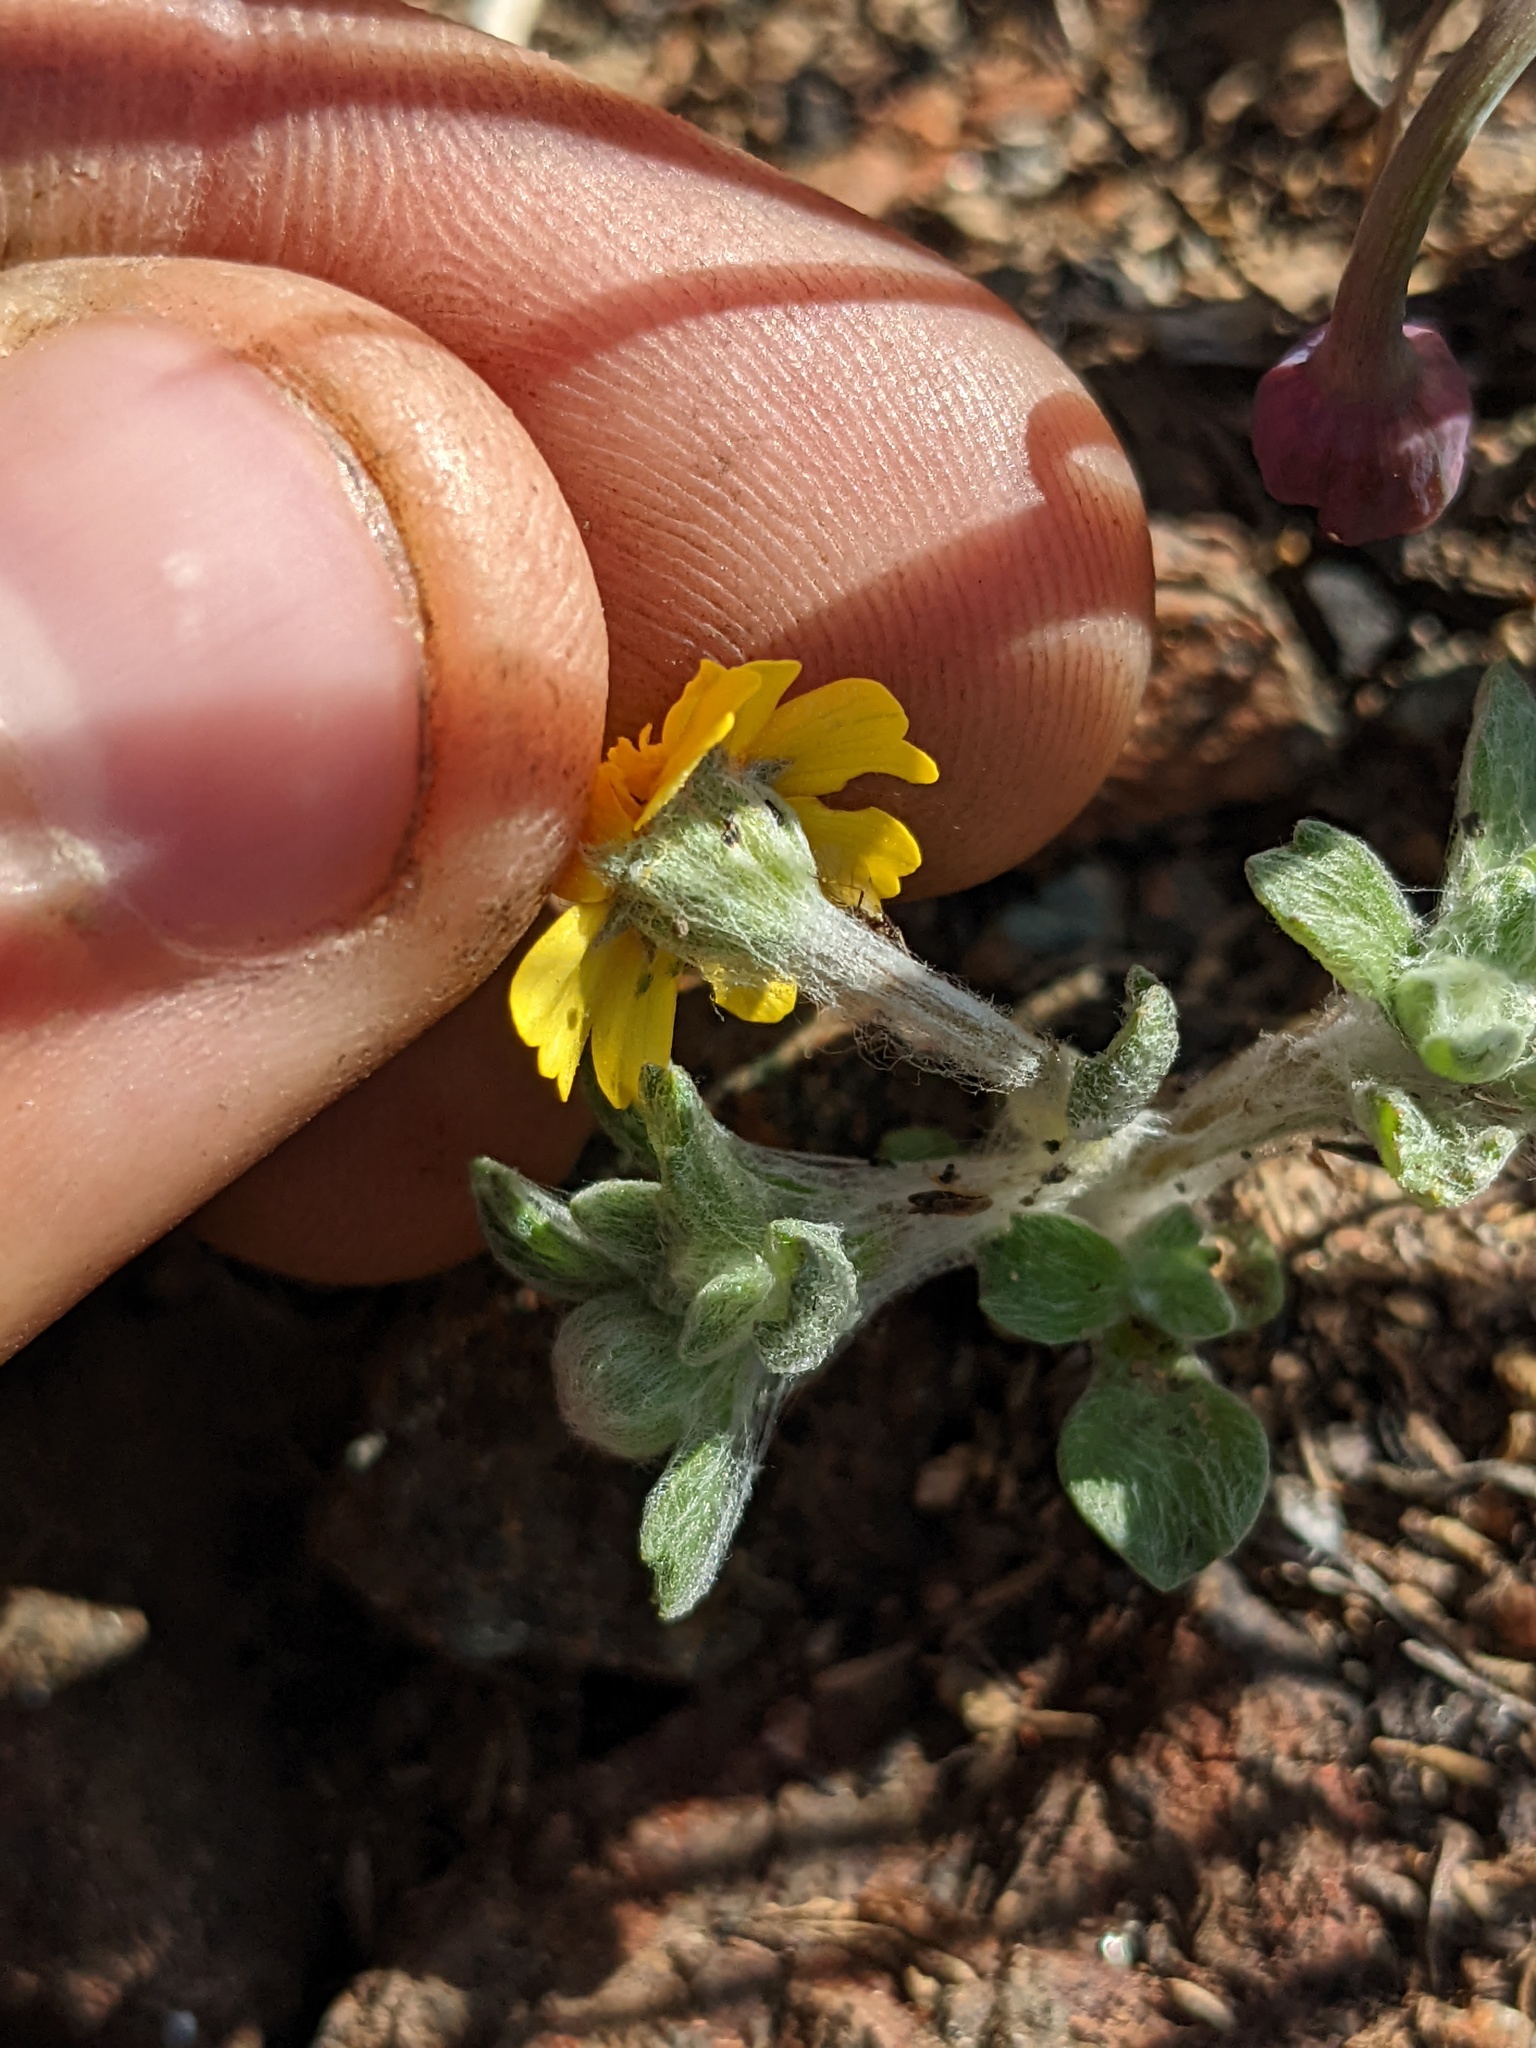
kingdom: Plantae
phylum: Tracheophyta
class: Magnoliopsida
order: Asterales
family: Asteraceae
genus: Eriophyllum
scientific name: Eriophyllum wallacei
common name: Wallace's woolly daisy
